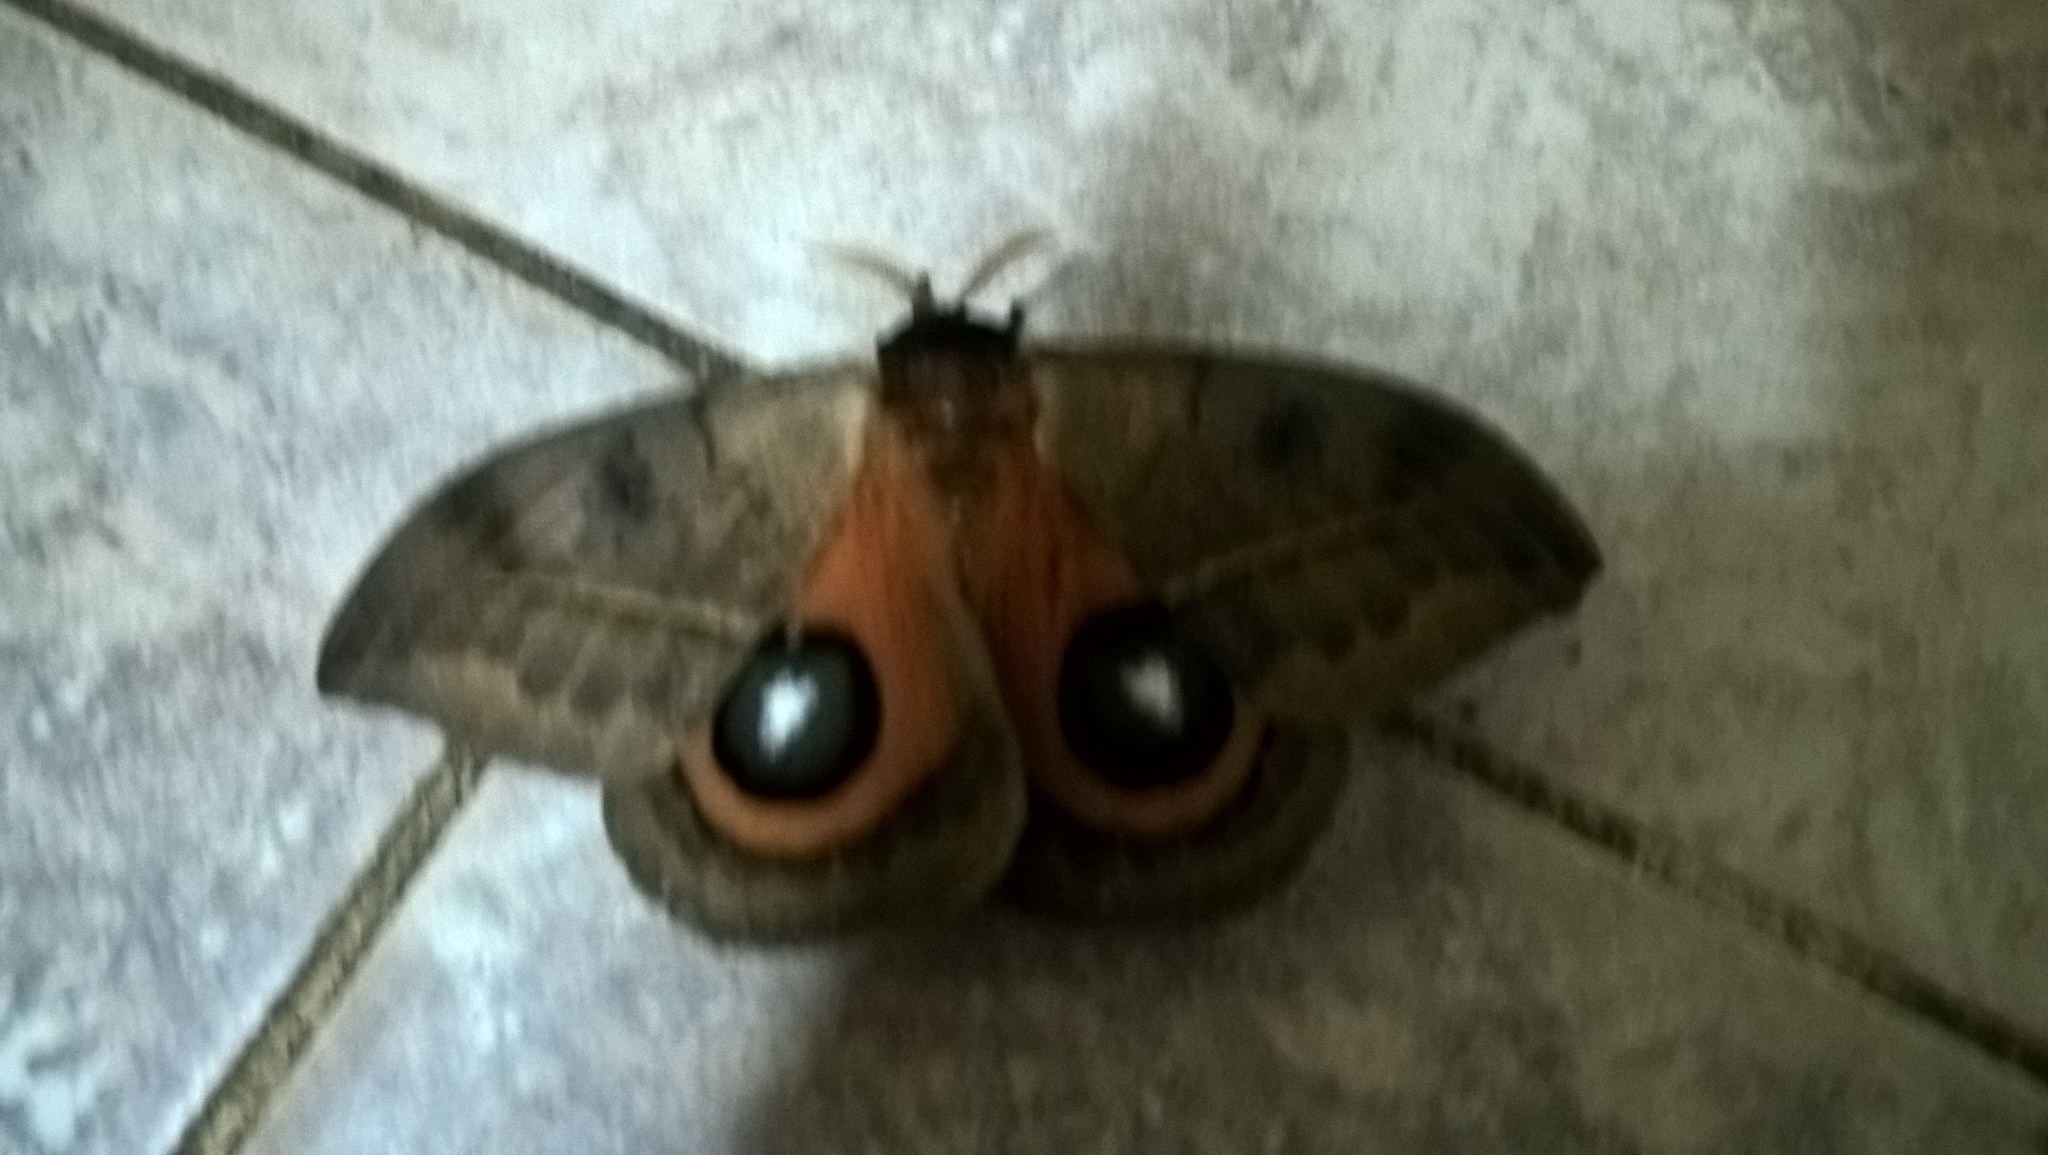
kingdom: Animalia
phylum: Arthropoda
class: Insecta
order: Lepidoptera
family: Saturniidae
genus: Automeris
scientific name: Automeris coresus
